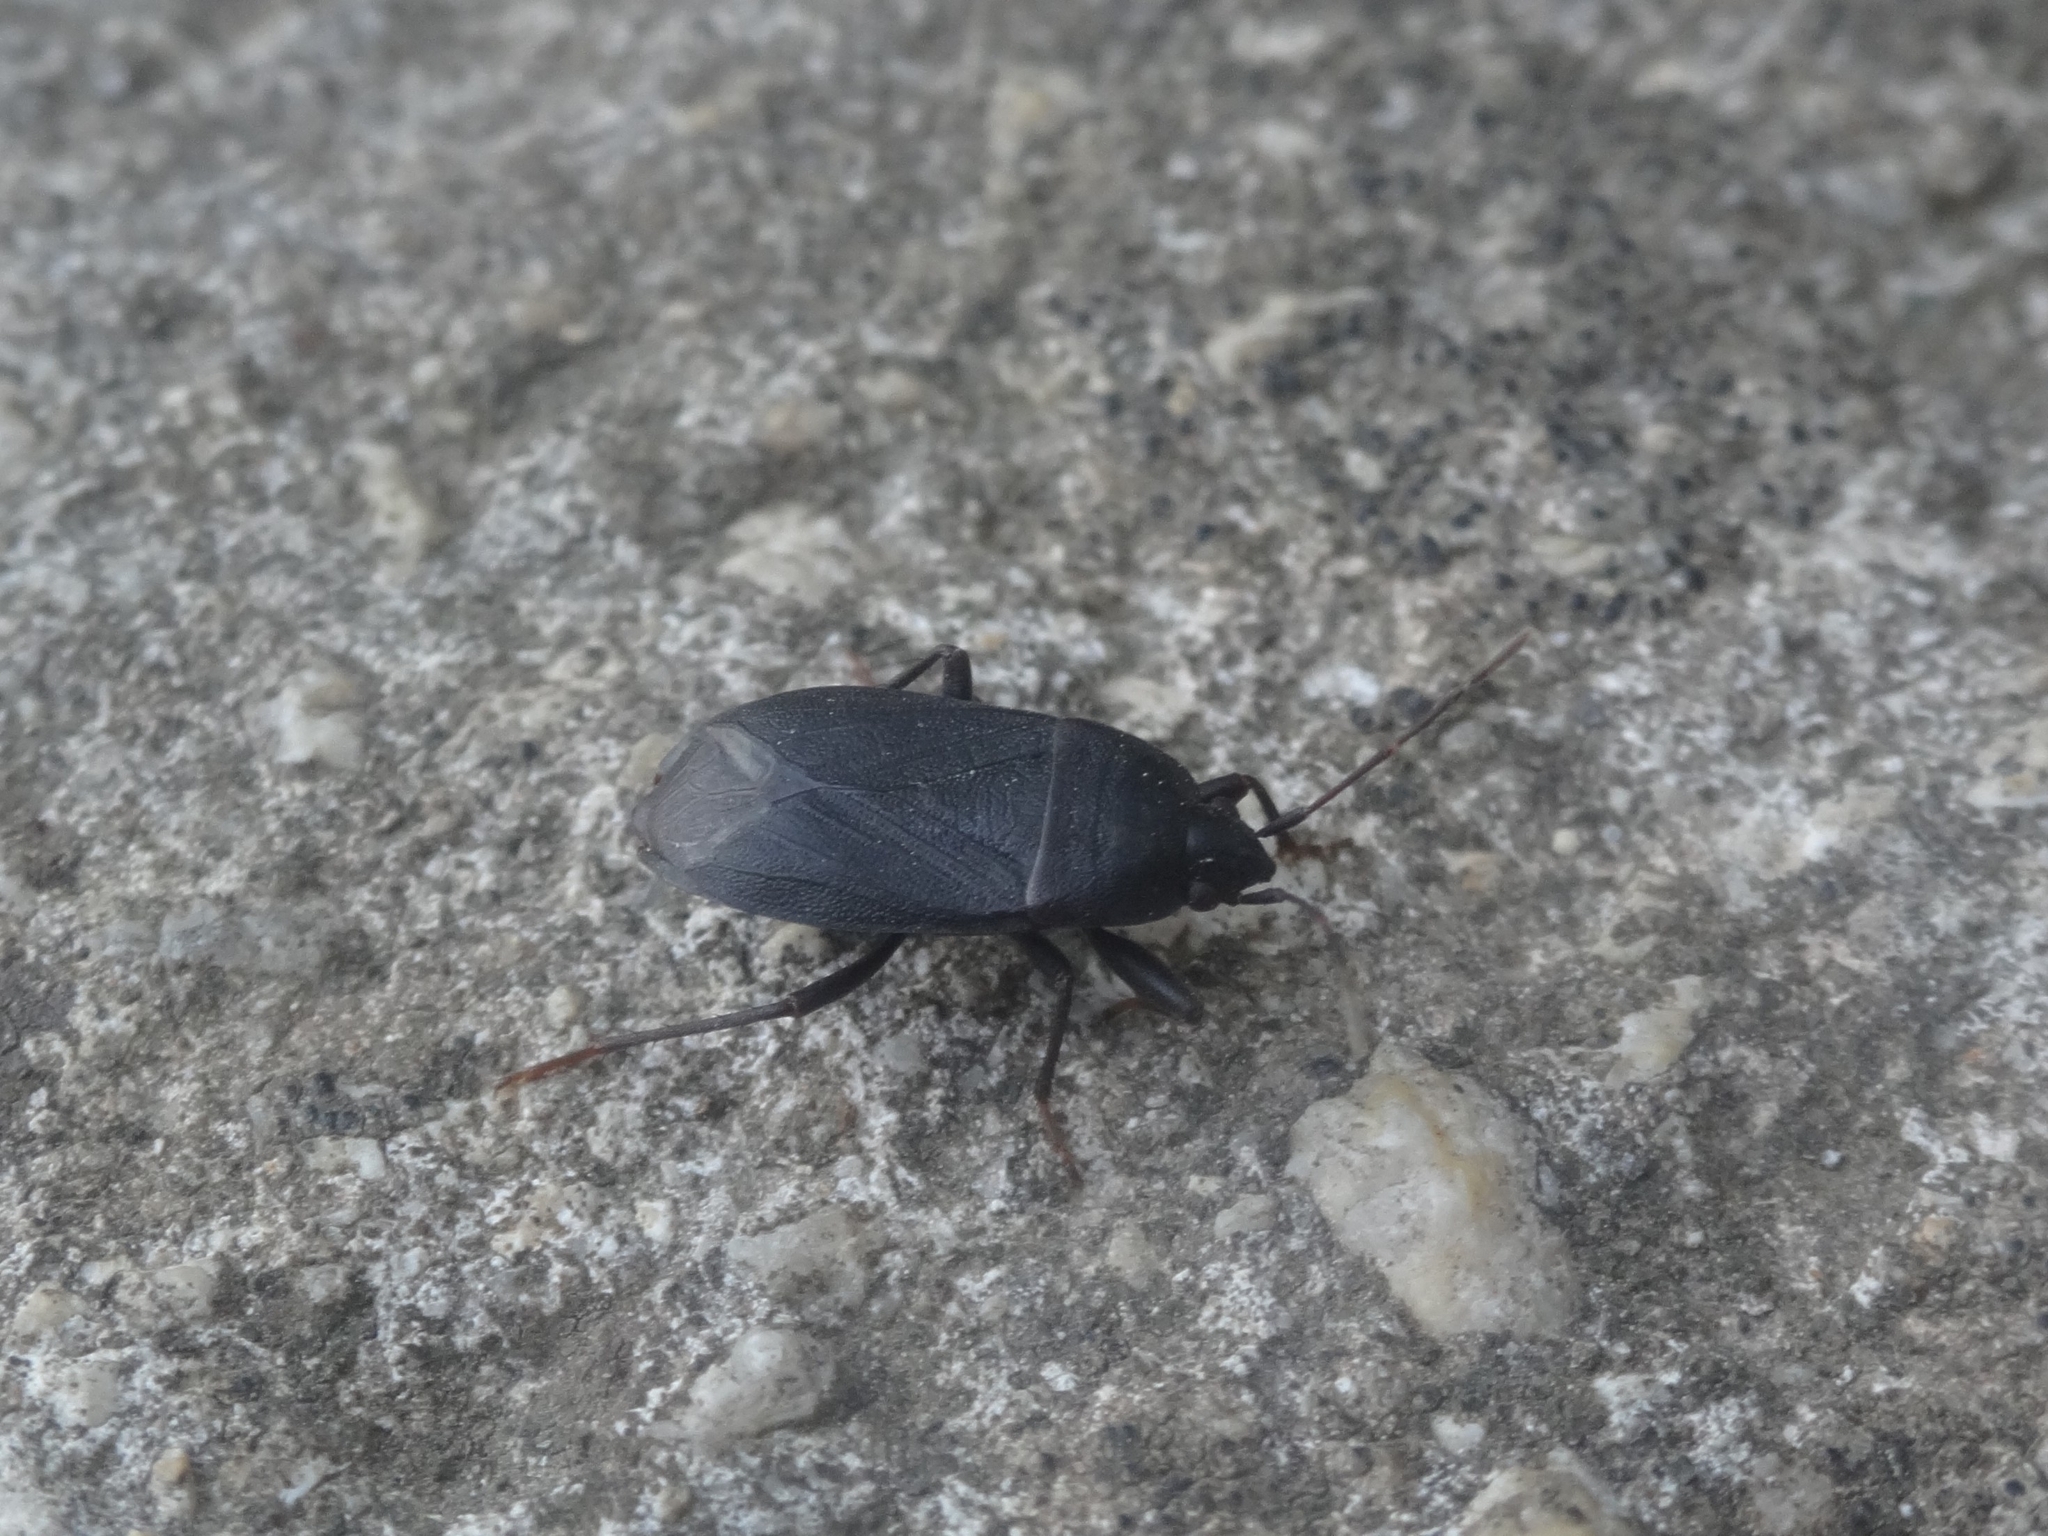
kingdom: Animalia
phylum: Arthropoda
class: Insecta
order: Hemiptera
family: Rhyparochromidae
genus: Lethaeus
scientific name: Lethaeus cribratissimus
